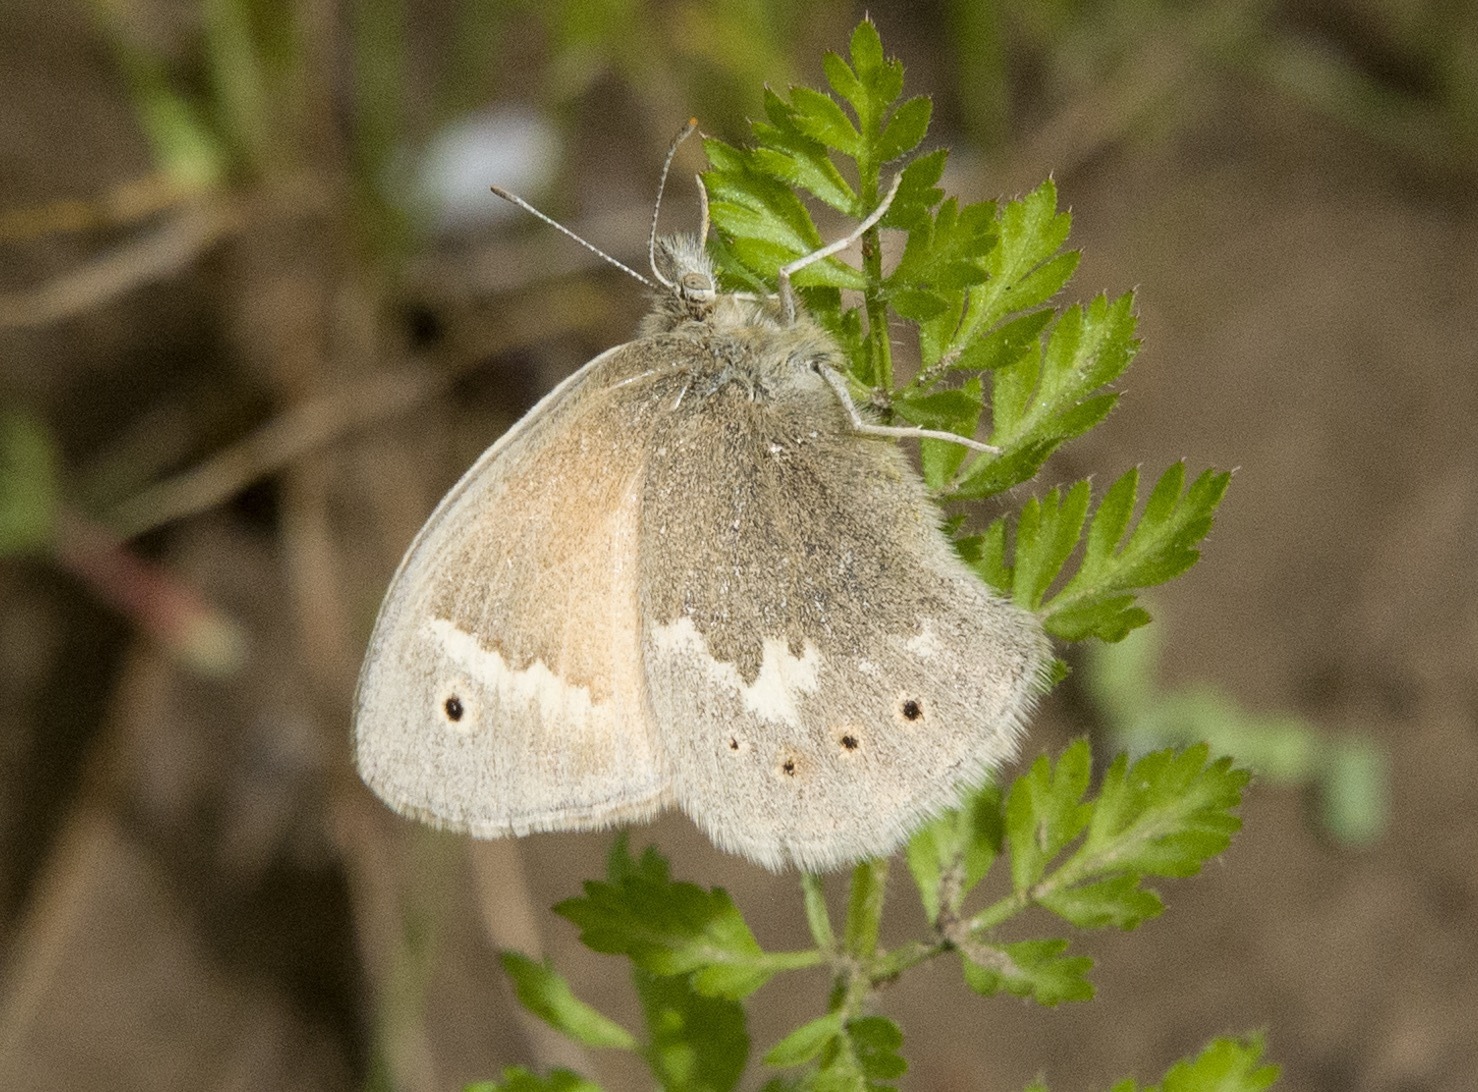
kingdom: Animalia
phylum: Arthropoda
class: Insecta
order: Lepidoptera
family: Nymphalidae
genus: Coenonympha
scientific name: Coenonympha california
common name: Common ringlet
